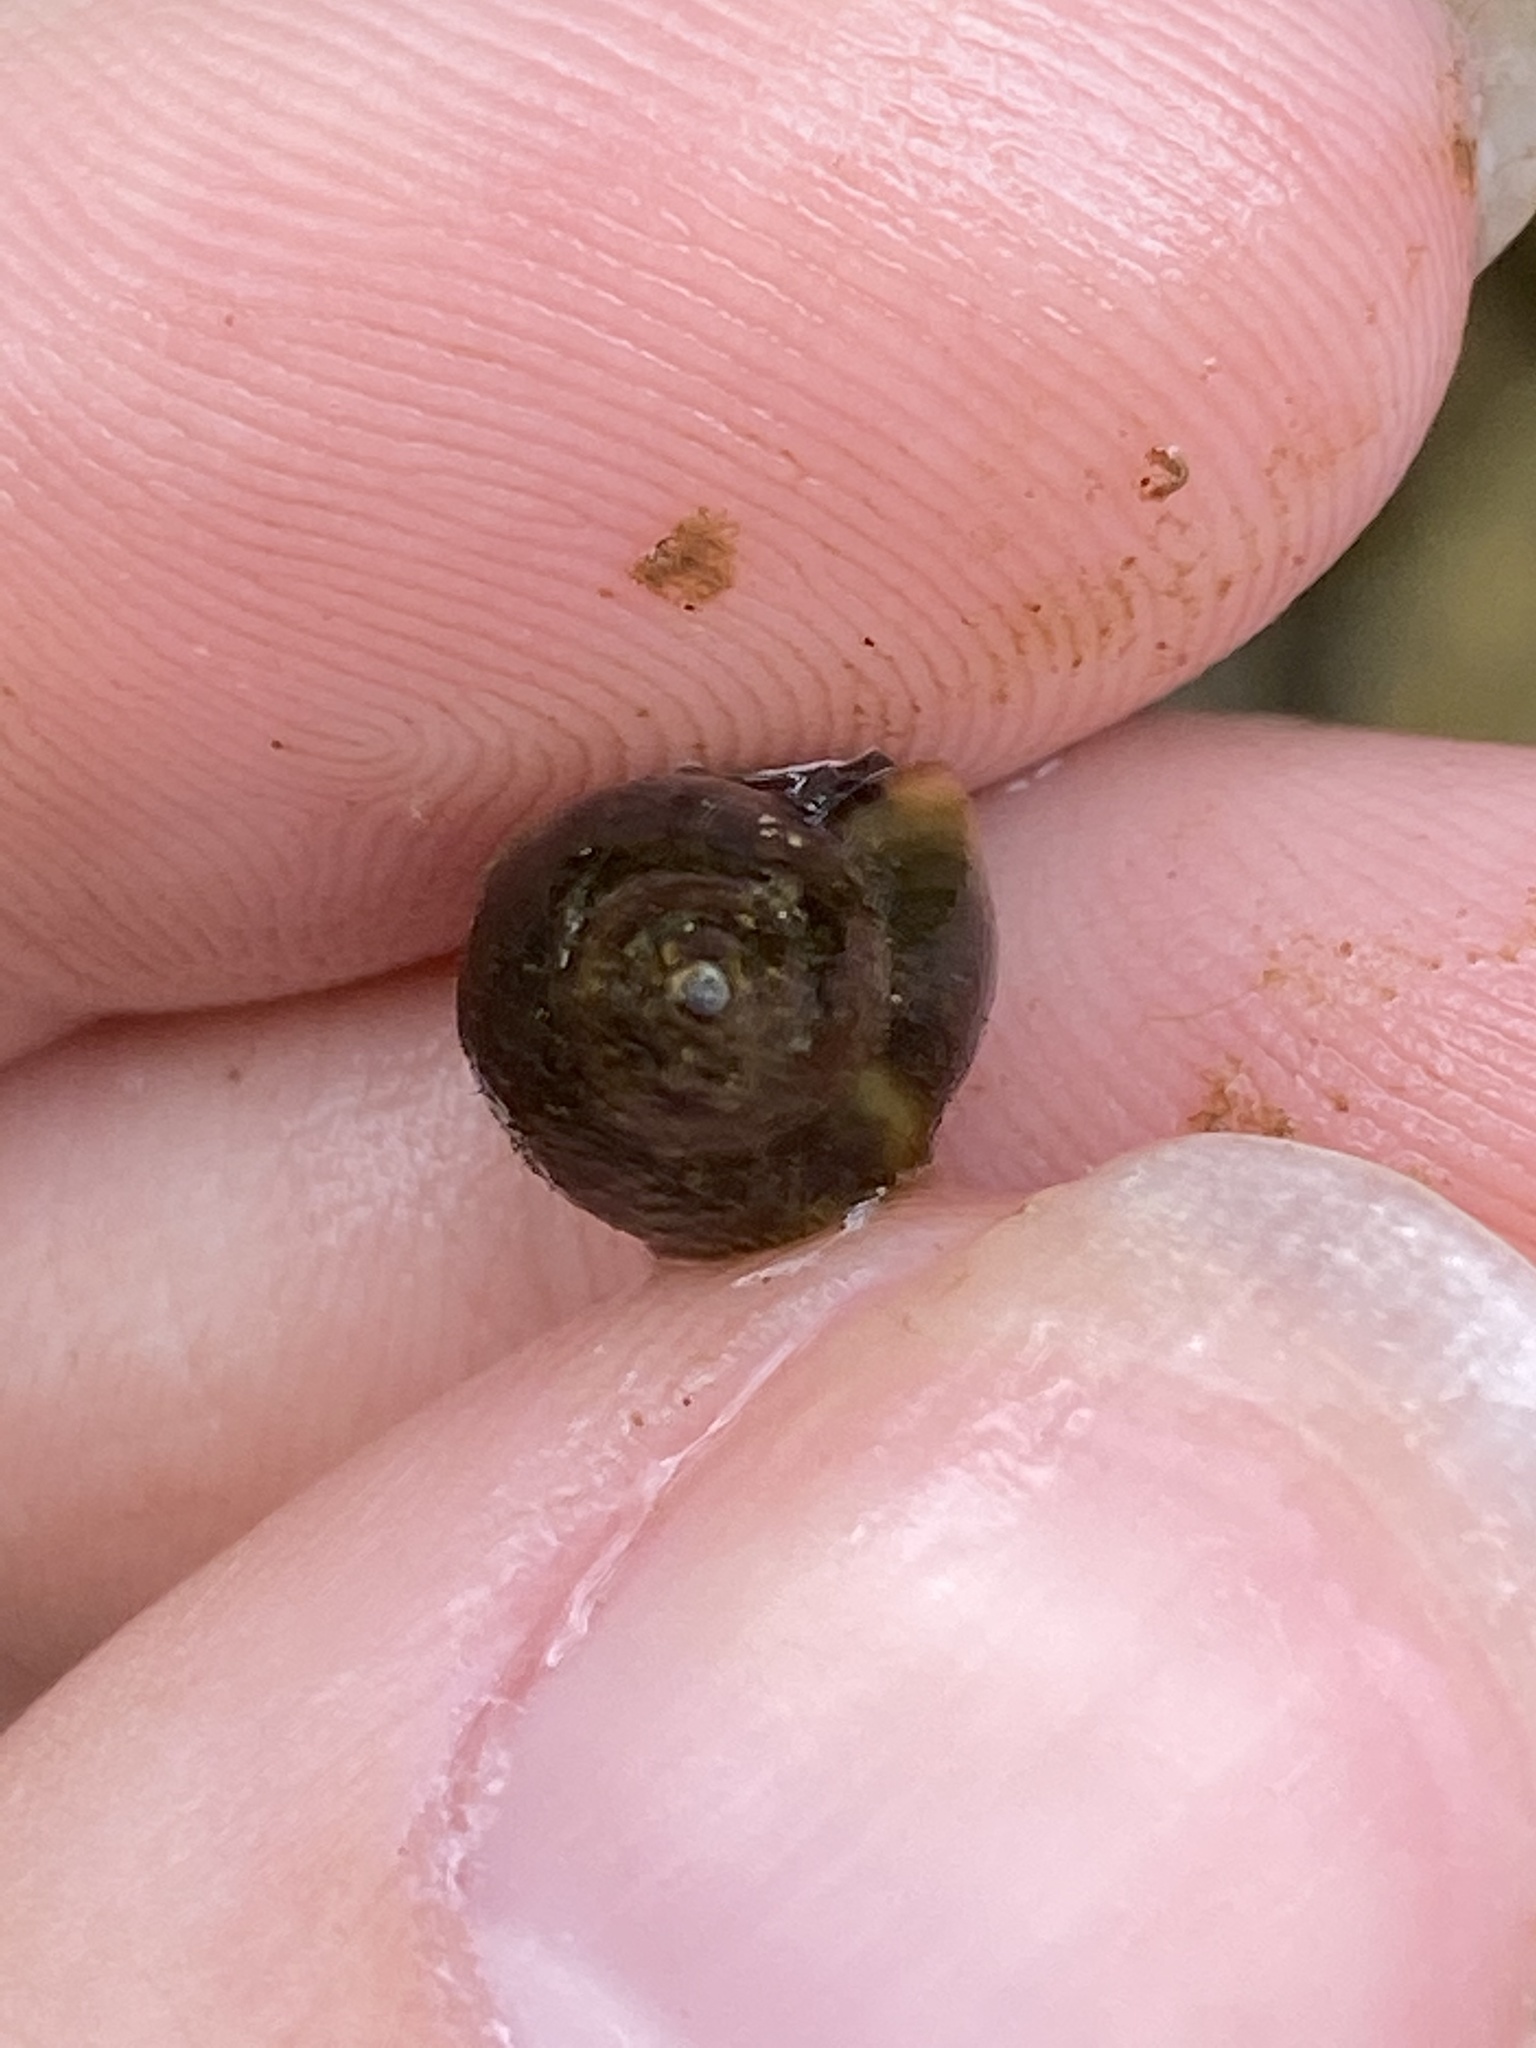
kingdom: Animalia
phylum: Mollusca
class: Gastropoda
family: Physidae
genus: Physella
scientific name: Physella acuta
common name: European physa
